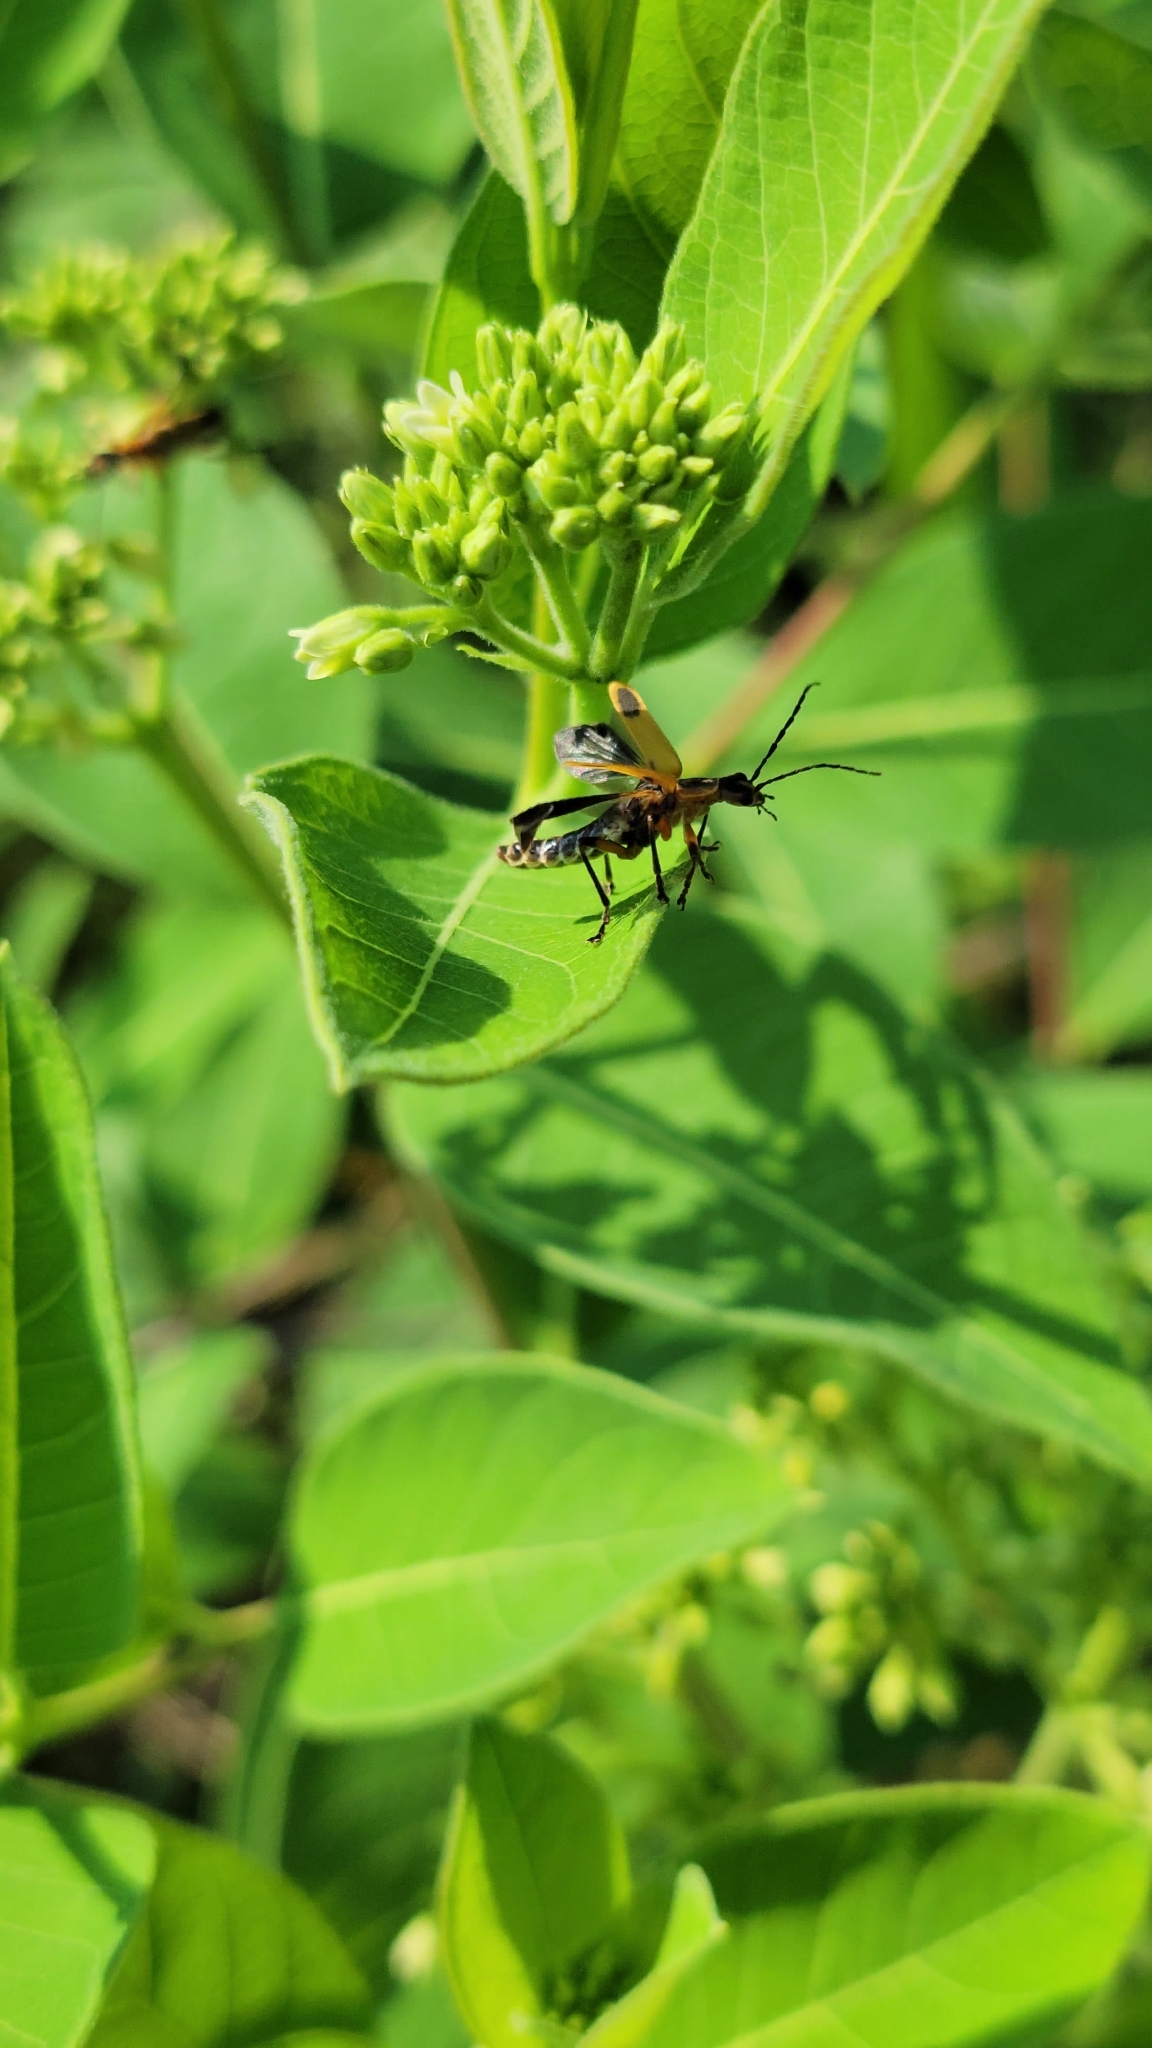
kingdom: Animalia
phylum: Arthropoda
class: Insecta
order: Coleoptera
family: Cantharidae
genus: Chauliognathus
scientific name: Chauliognathus marginatus
